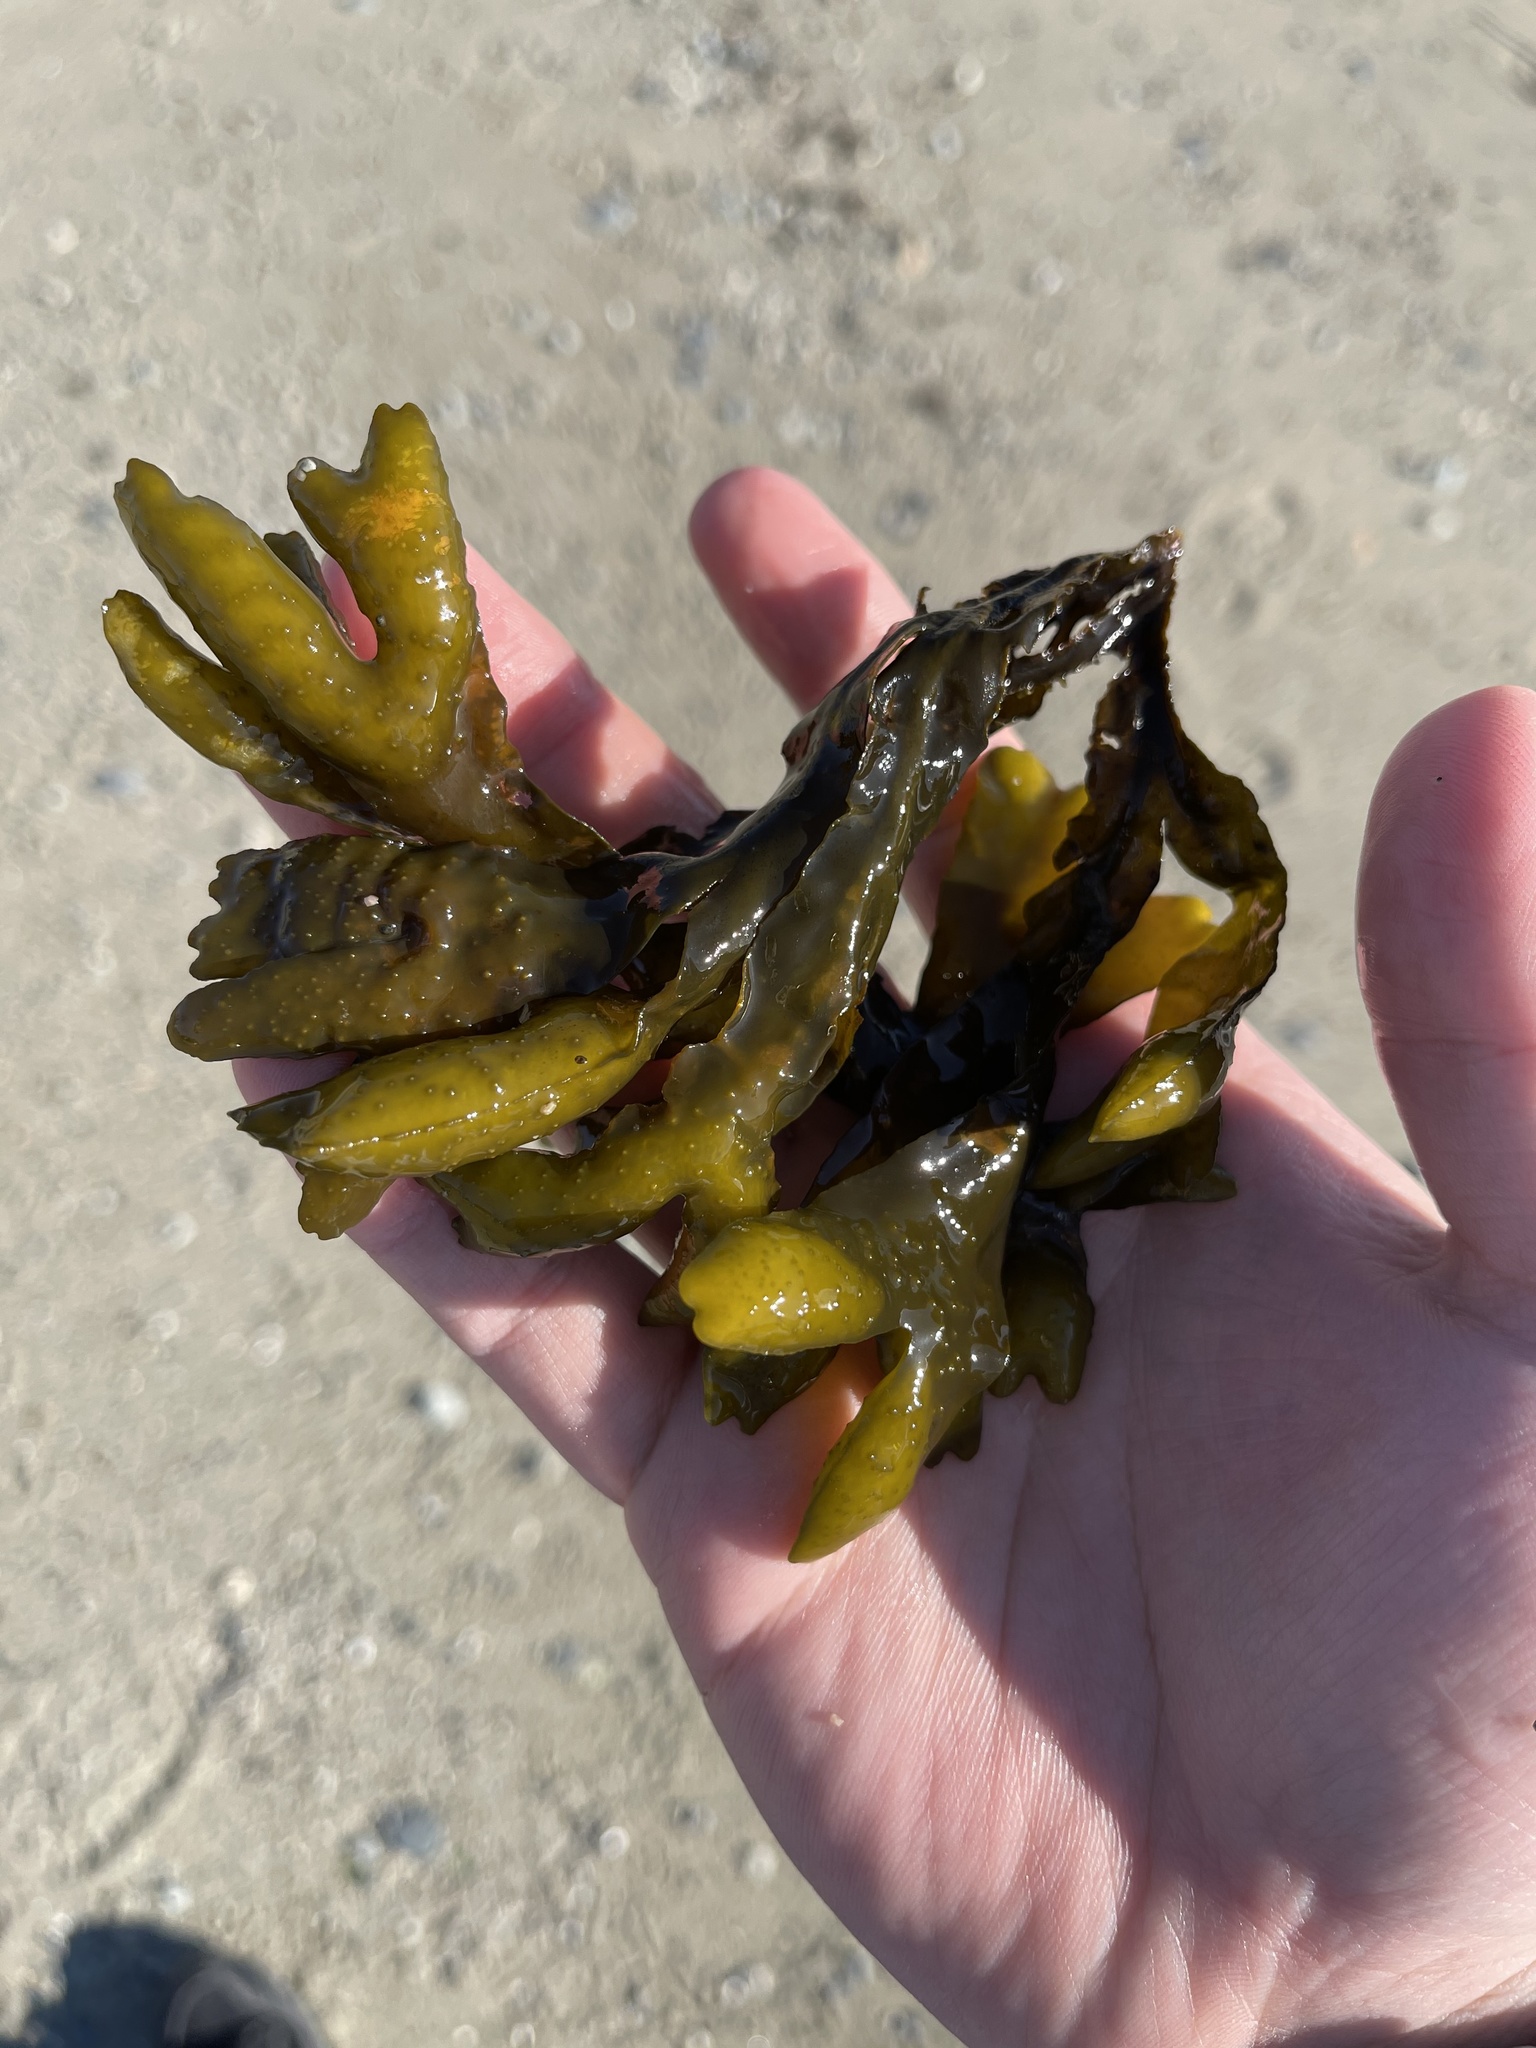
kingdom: Chromista
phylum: Ochrophyta
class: Phaeophyceae
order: Fucales
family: Fucaceae
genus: Fucus
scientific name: Fucus distichus
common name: Rockweed
